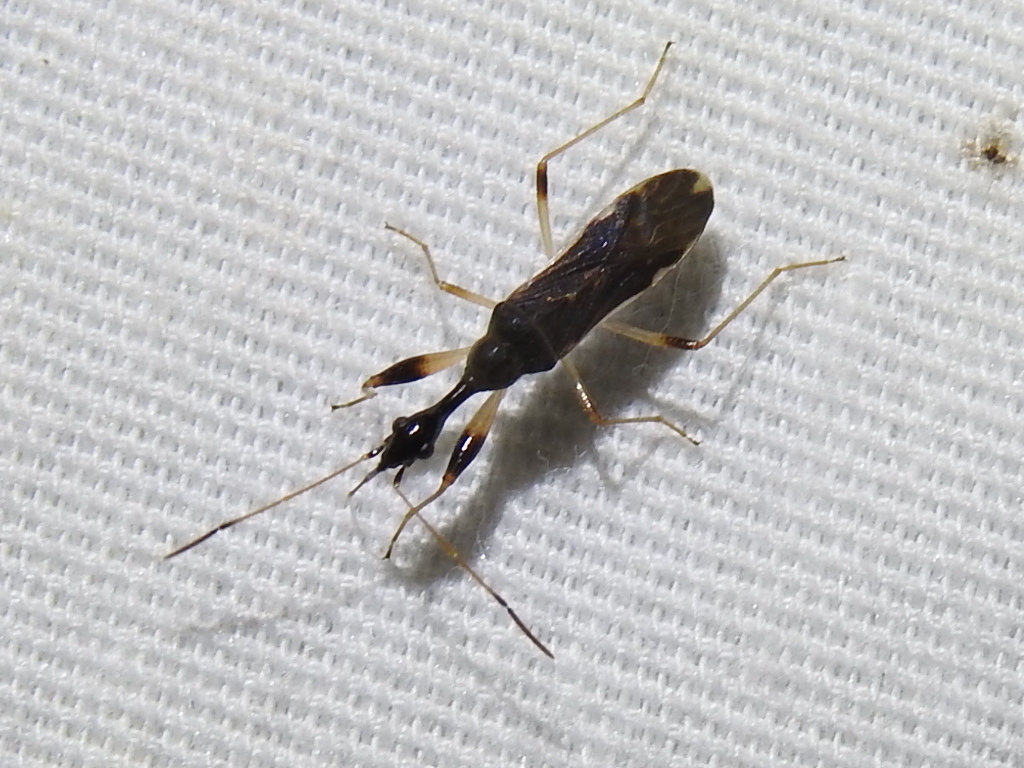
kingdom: Animalia
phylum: Arthropoda
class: Insecta
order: Hemiptera
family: Rhyparochromidae
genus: Myodocha
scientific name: Myodocha serripes
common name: Long-necked seed bug
